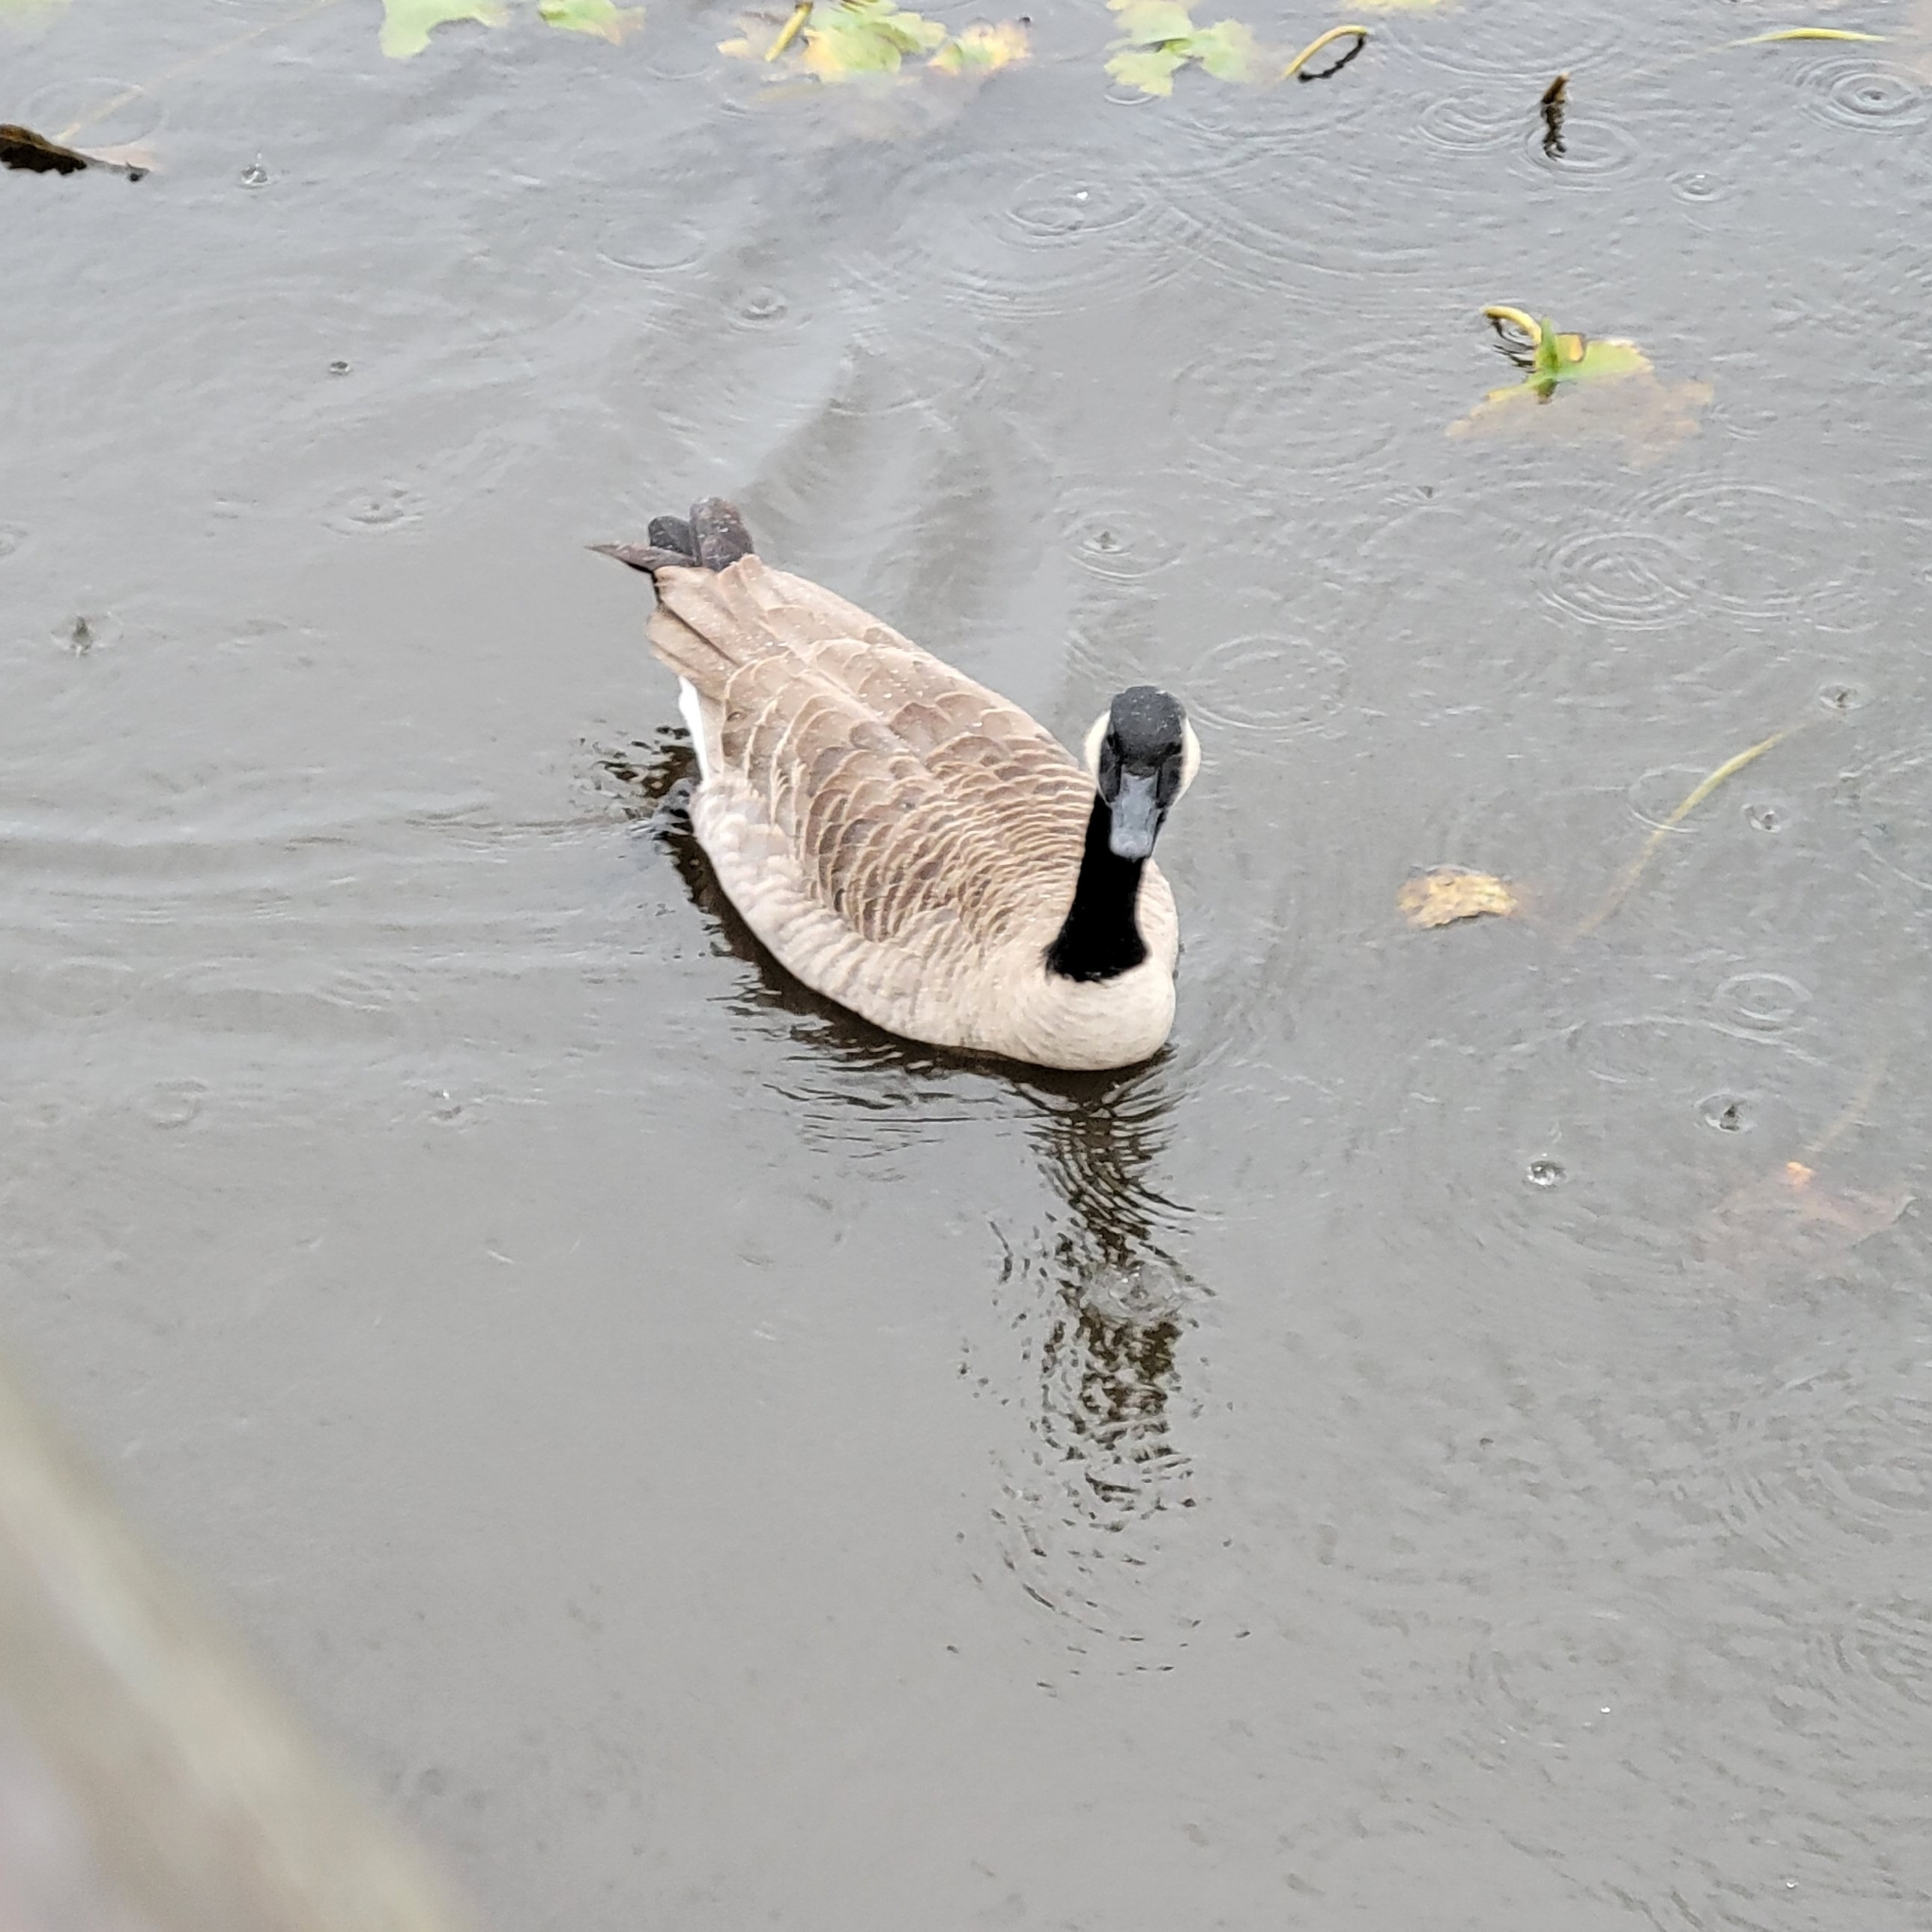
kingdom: Animalia
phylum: Chordata
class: Aves
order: Anseriformes
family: Anatidae
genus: Branta
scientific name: Branta canadensis
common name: Canada goose
